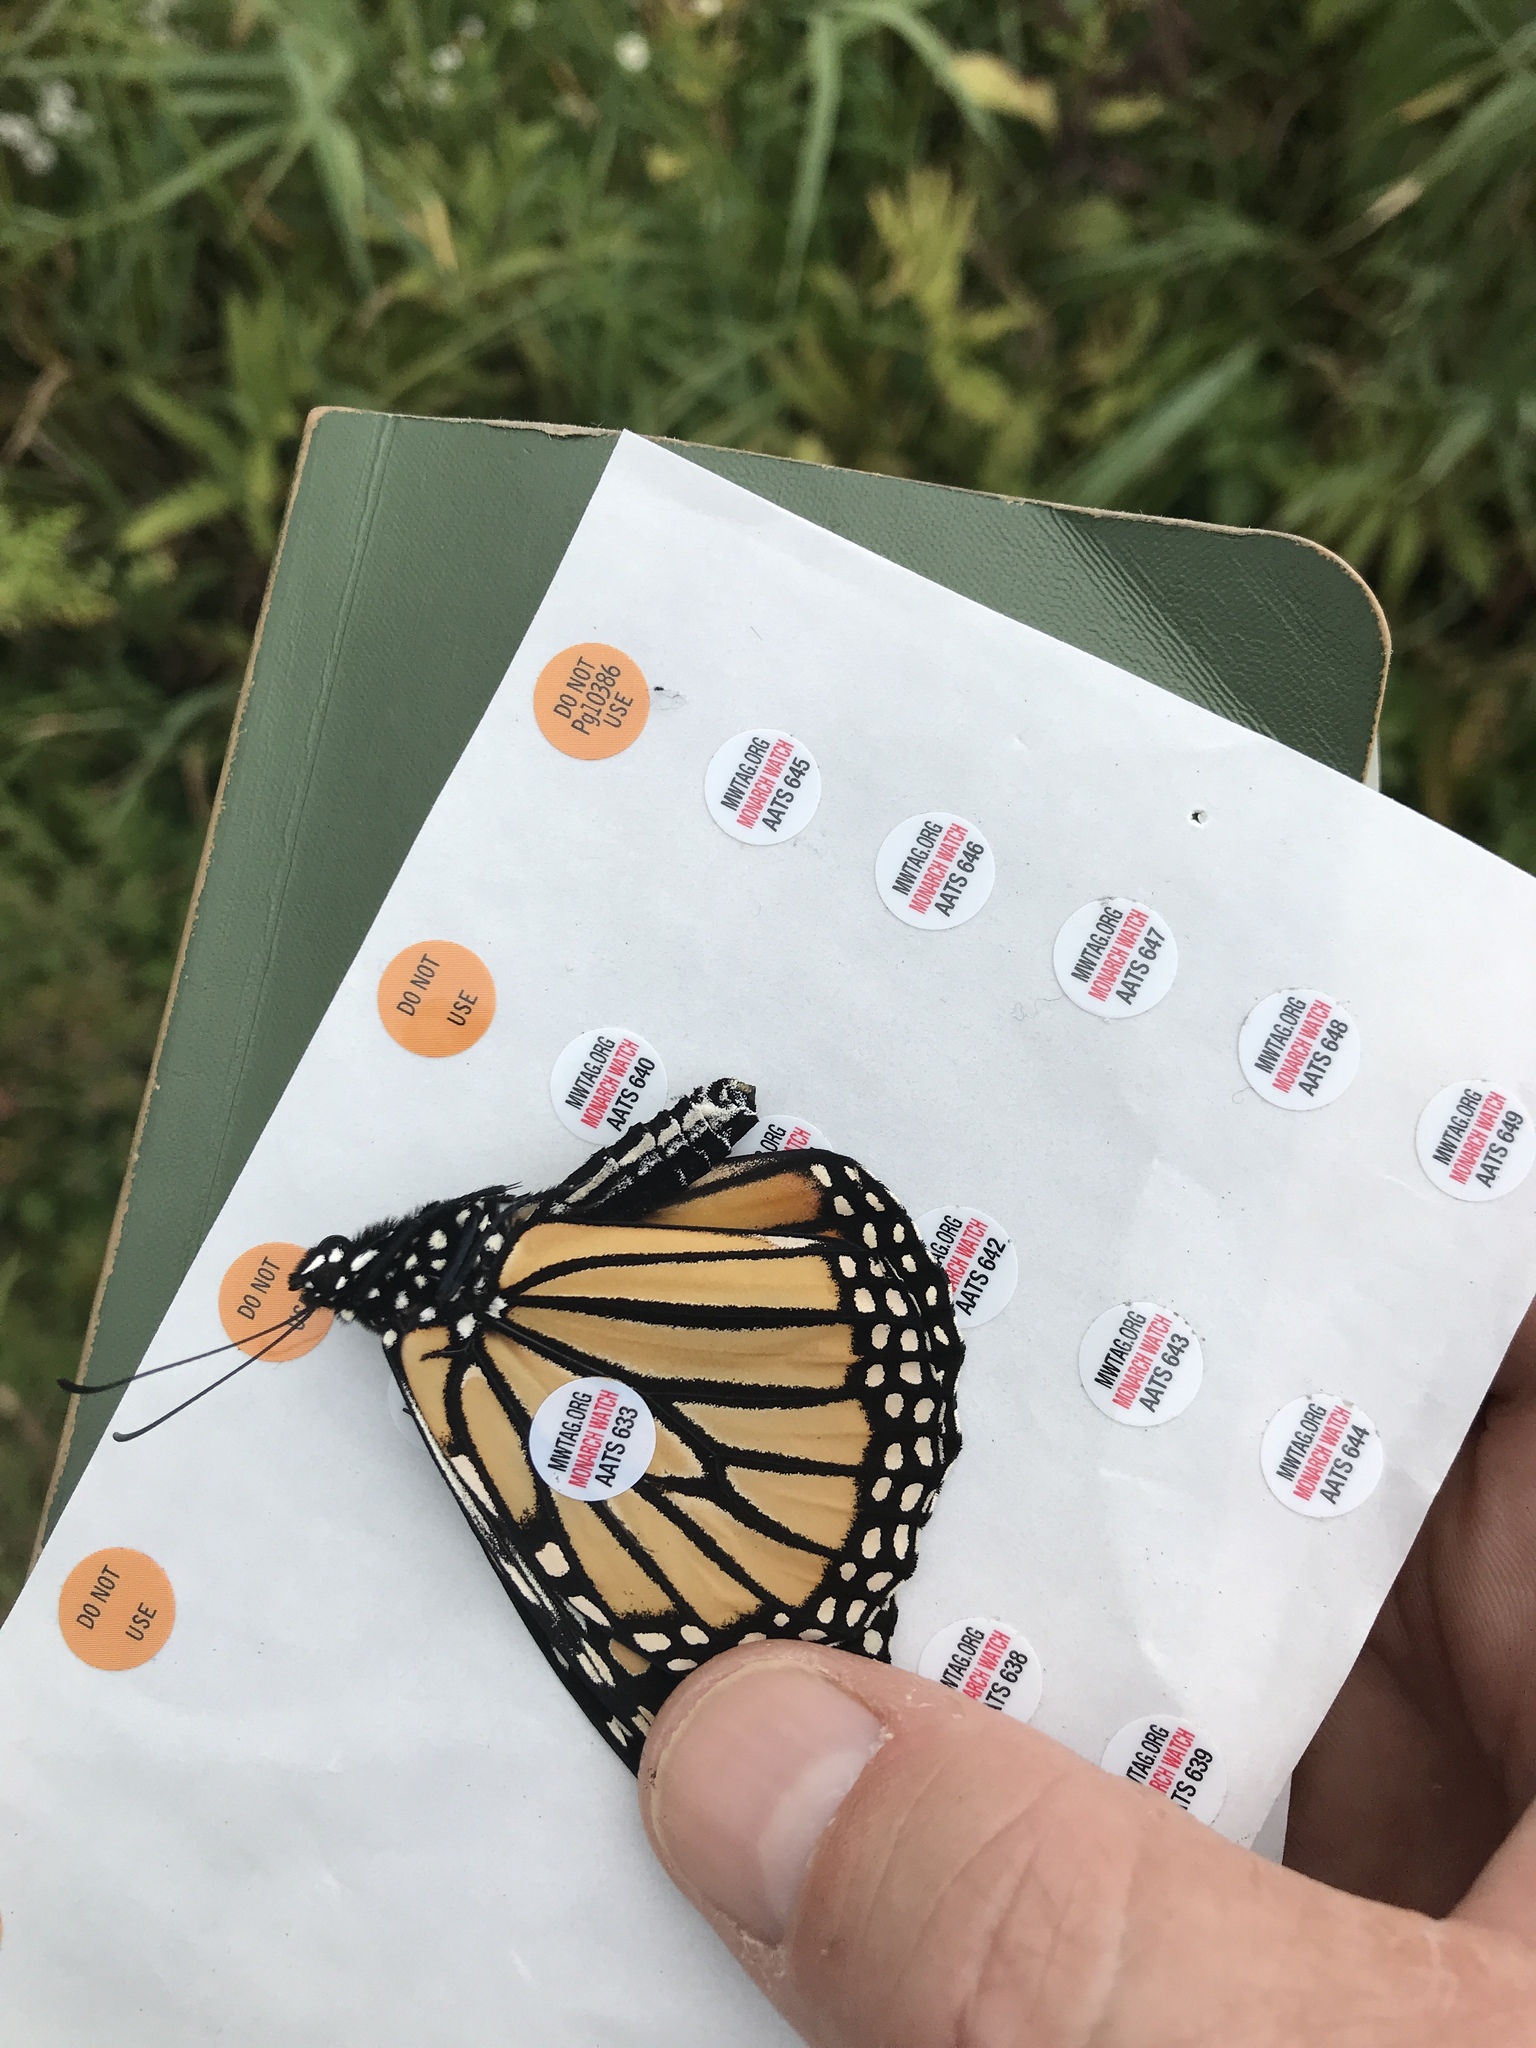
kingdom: Animalia
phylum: Arthropoda
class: Insecta
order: Lepidoptera
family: Nymphalidae
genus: Danaus
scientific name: Danaus plexippus
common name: Monarch
